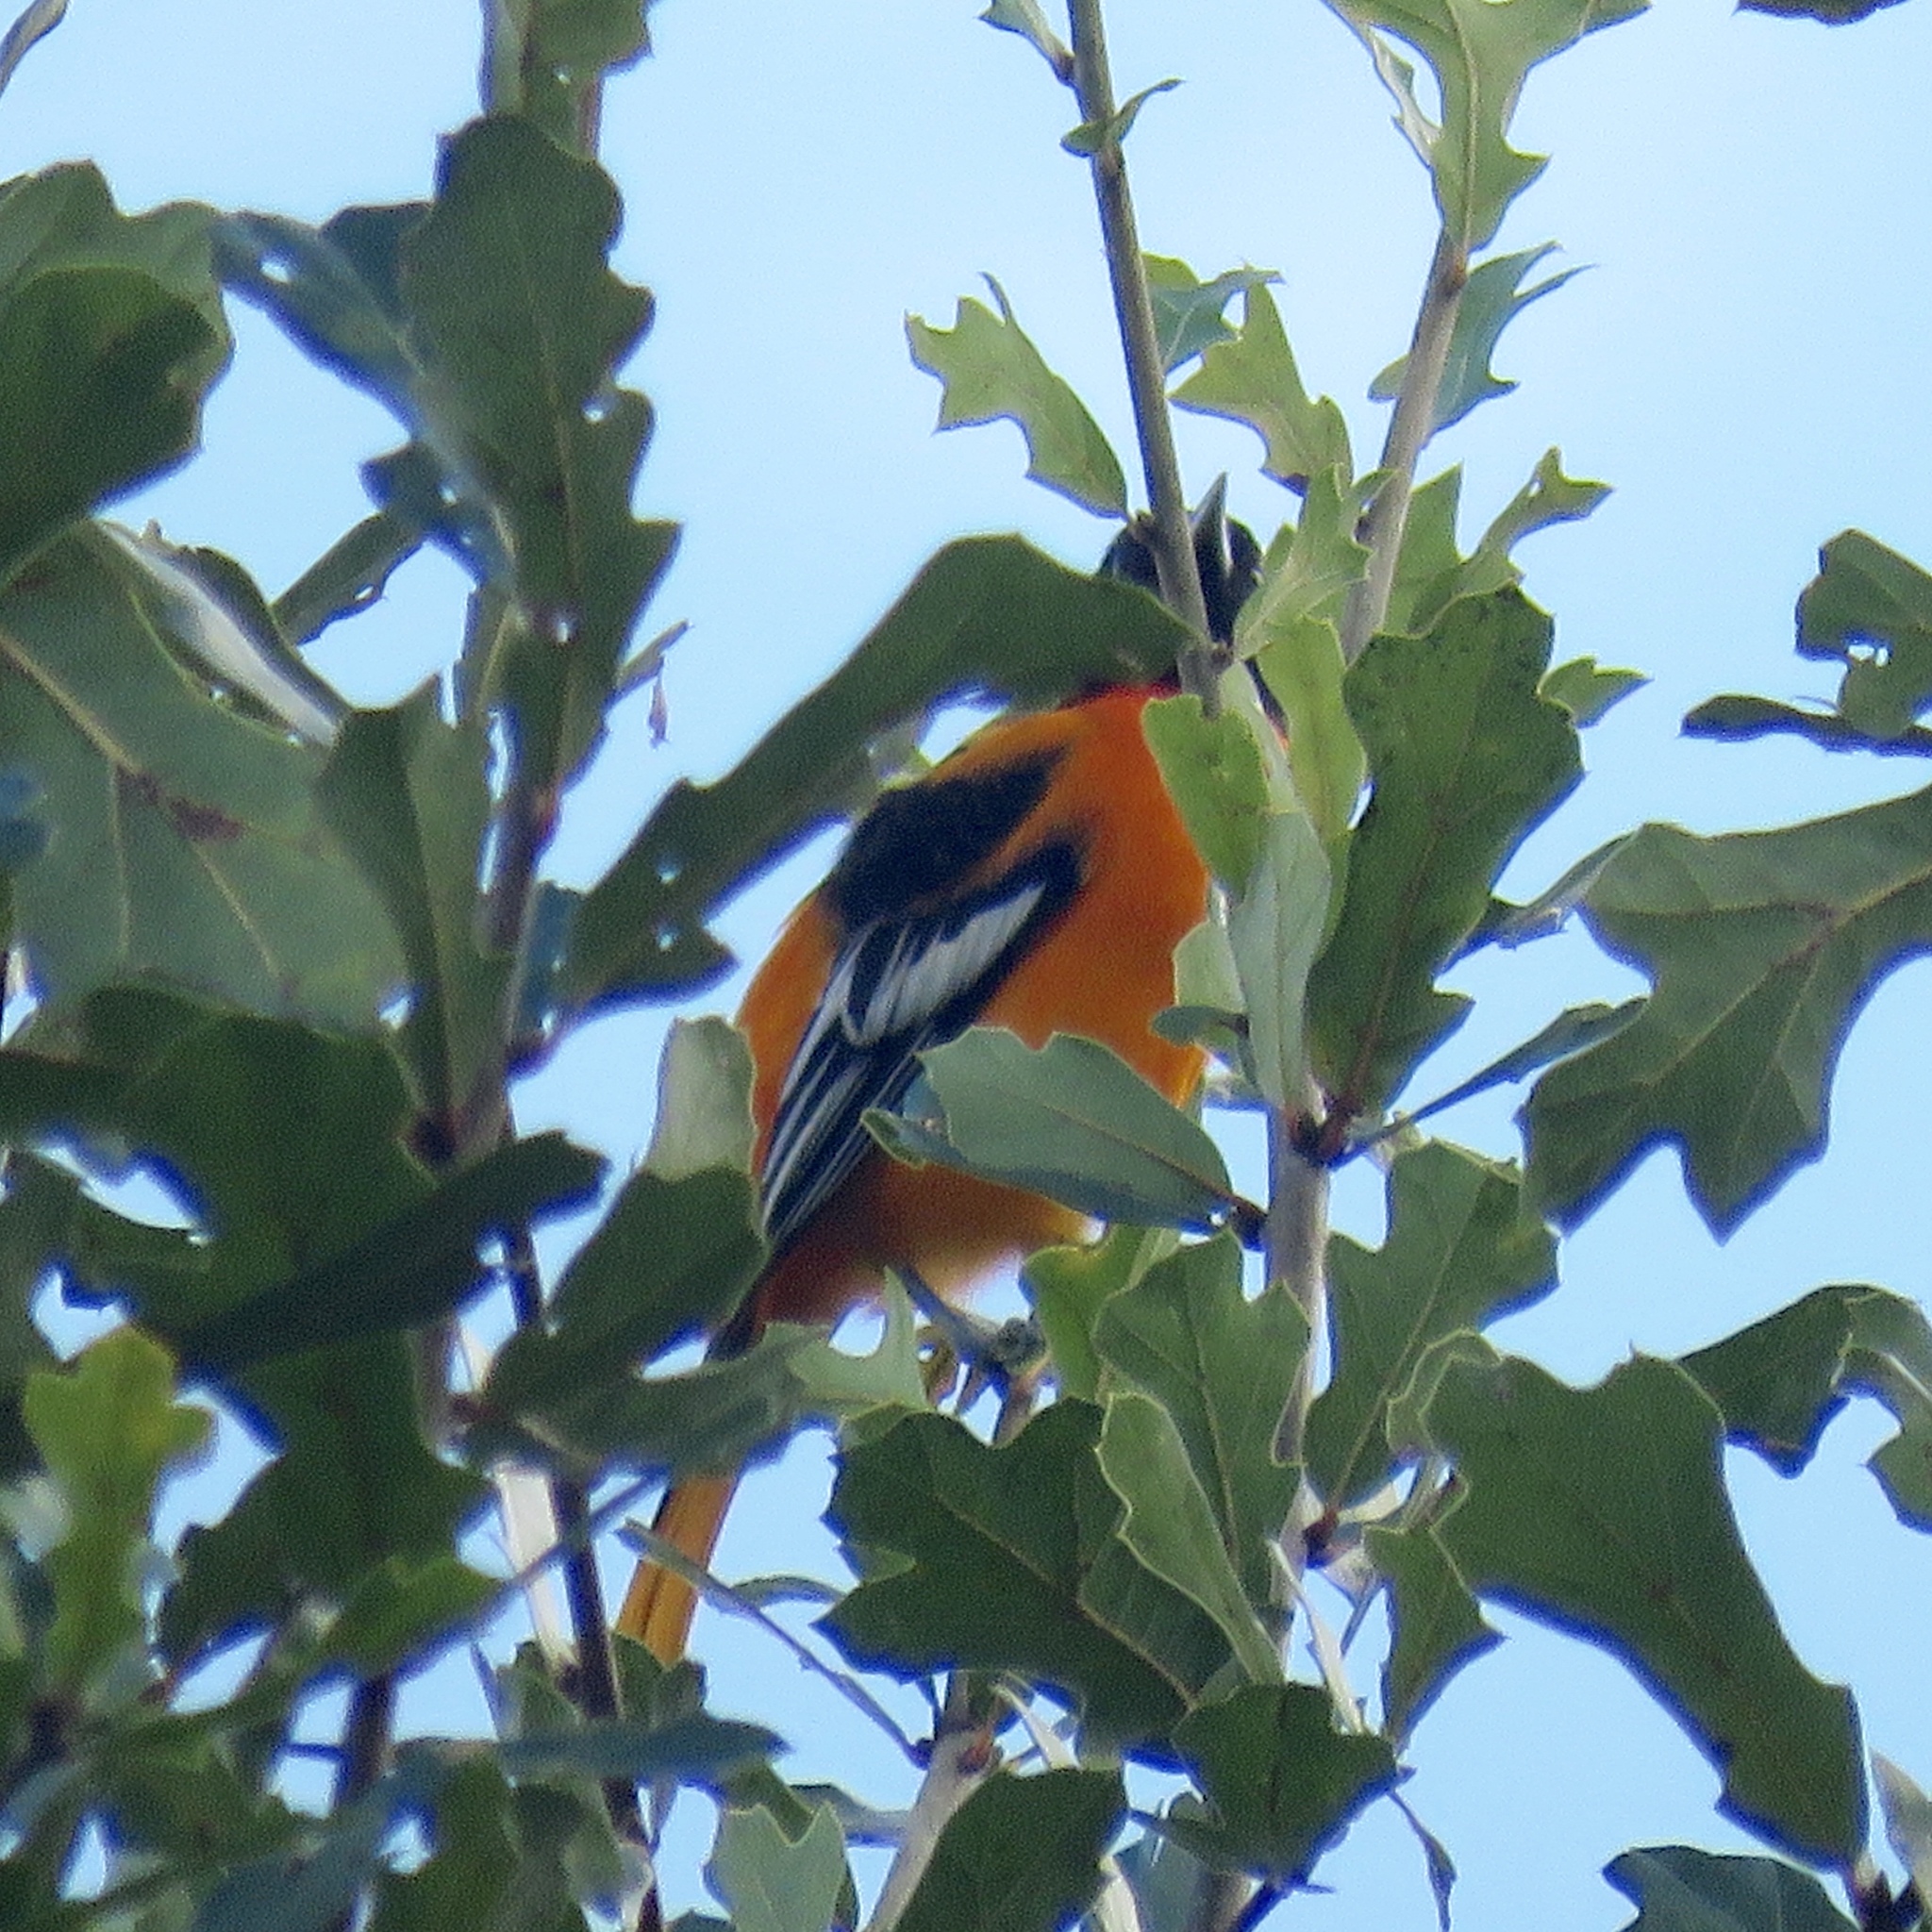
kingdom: Animalia
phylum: Chordata
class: Aves
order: Passeriformes
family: Icteridae
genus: Icterus
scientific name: Icterus galbula
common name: Baltimore oriole
